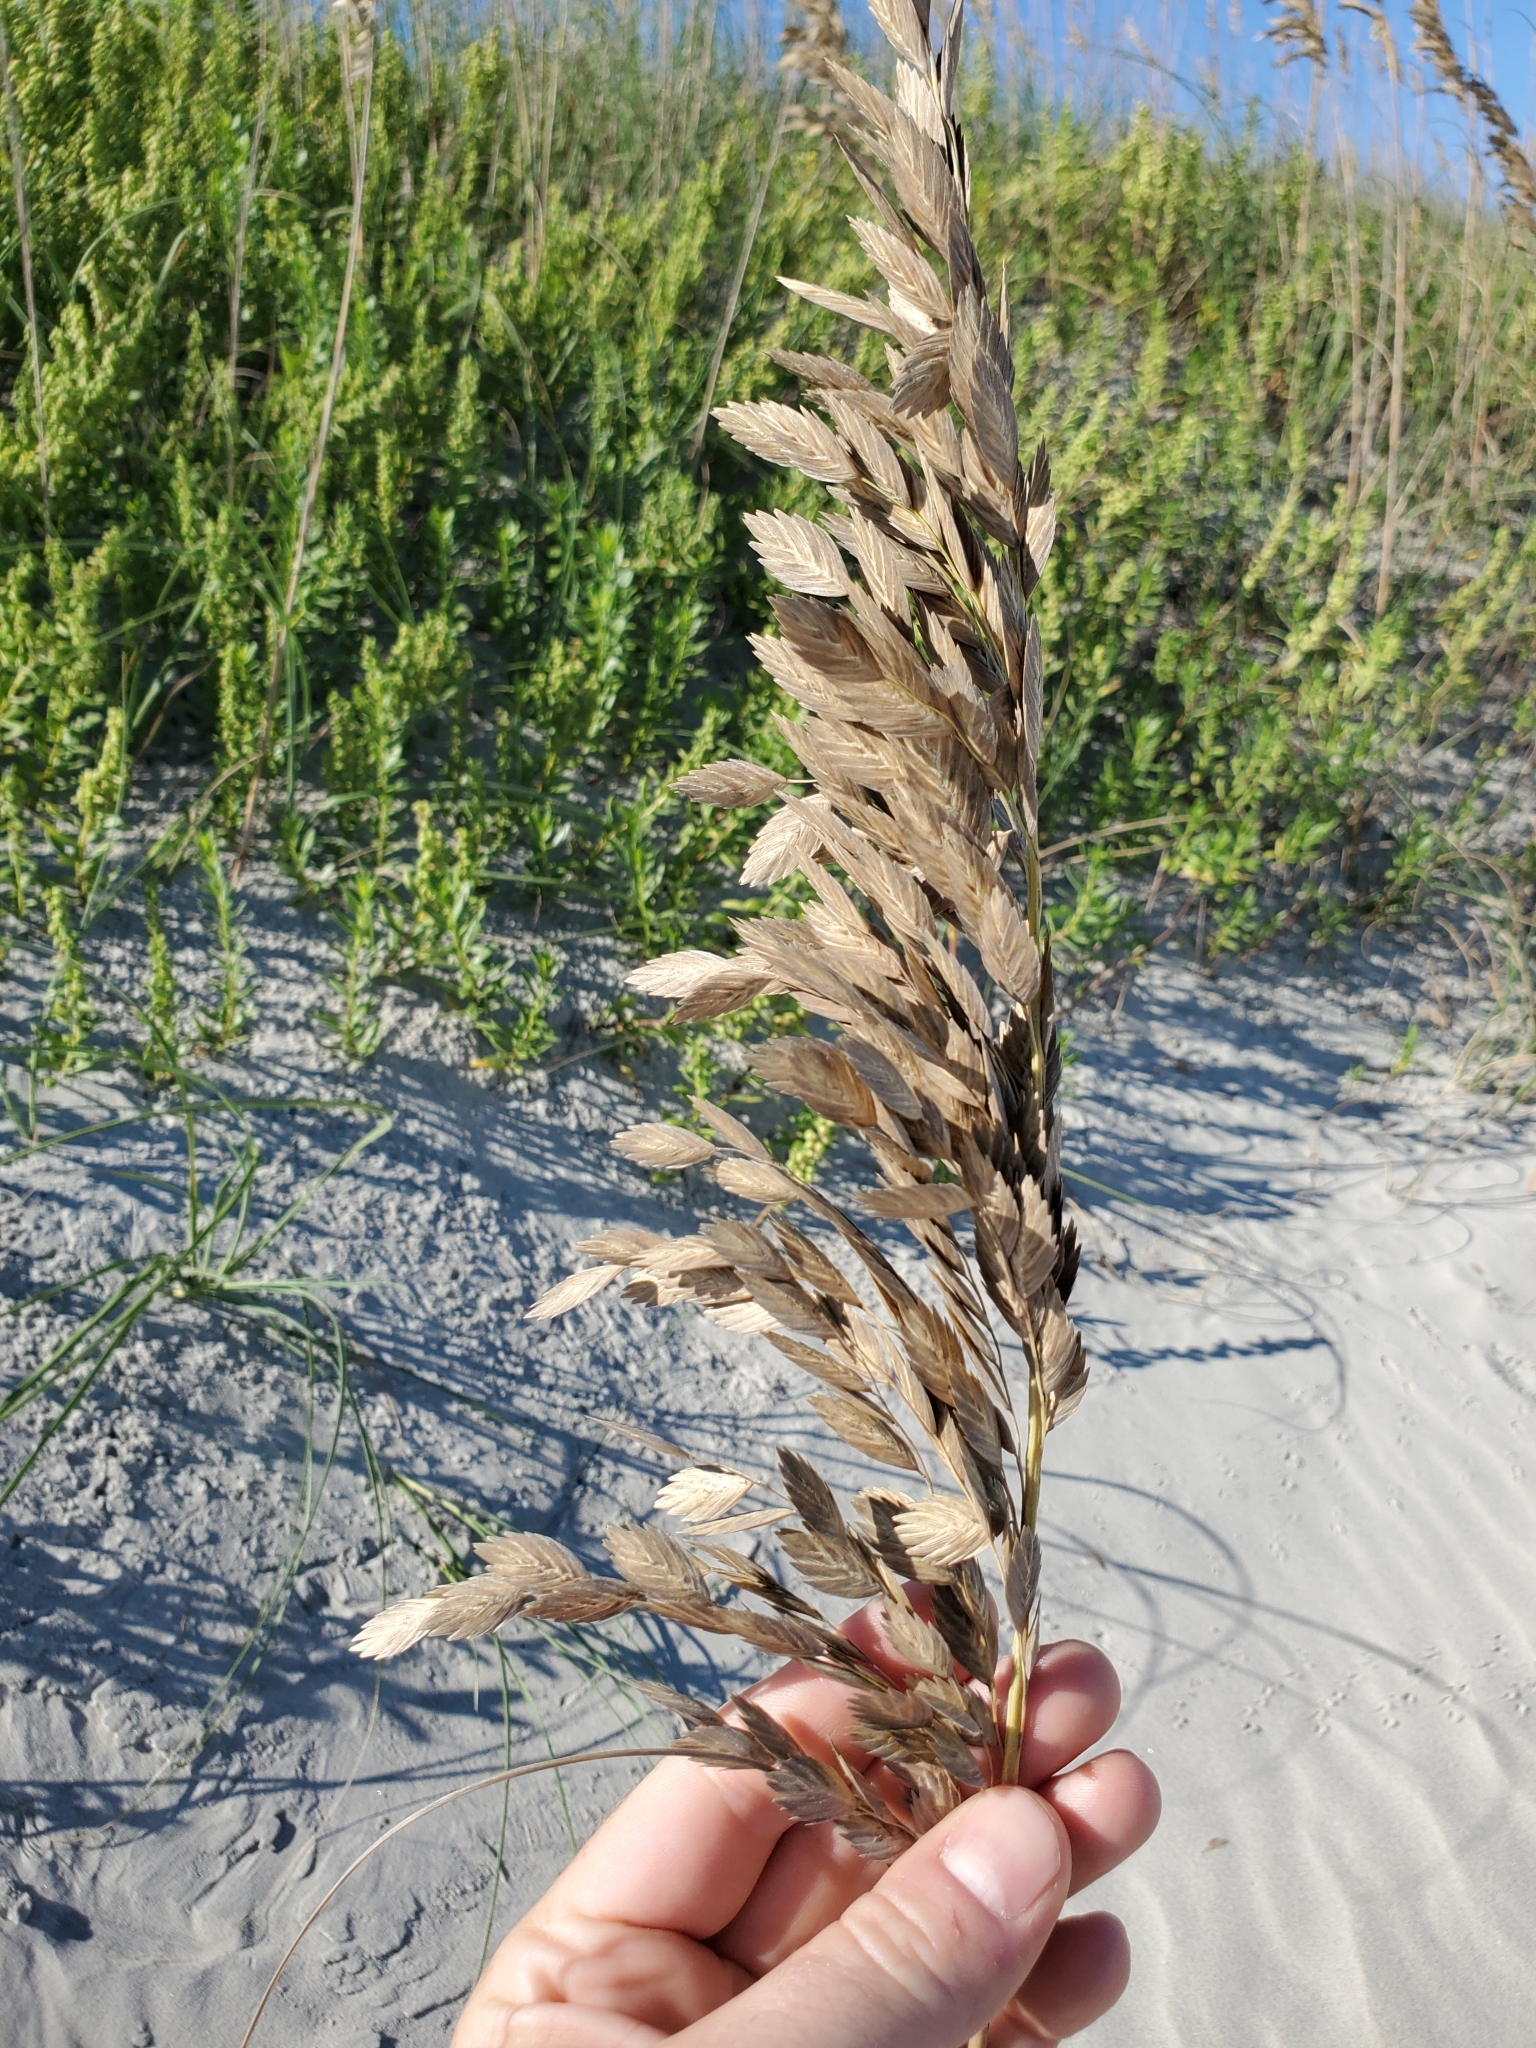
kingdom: Plantae
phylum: Tracheophyta
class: Liliopsida
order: Poales
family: Poaceae
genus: Uniola
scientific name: Uniola paniculata
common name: Seaside-oats
